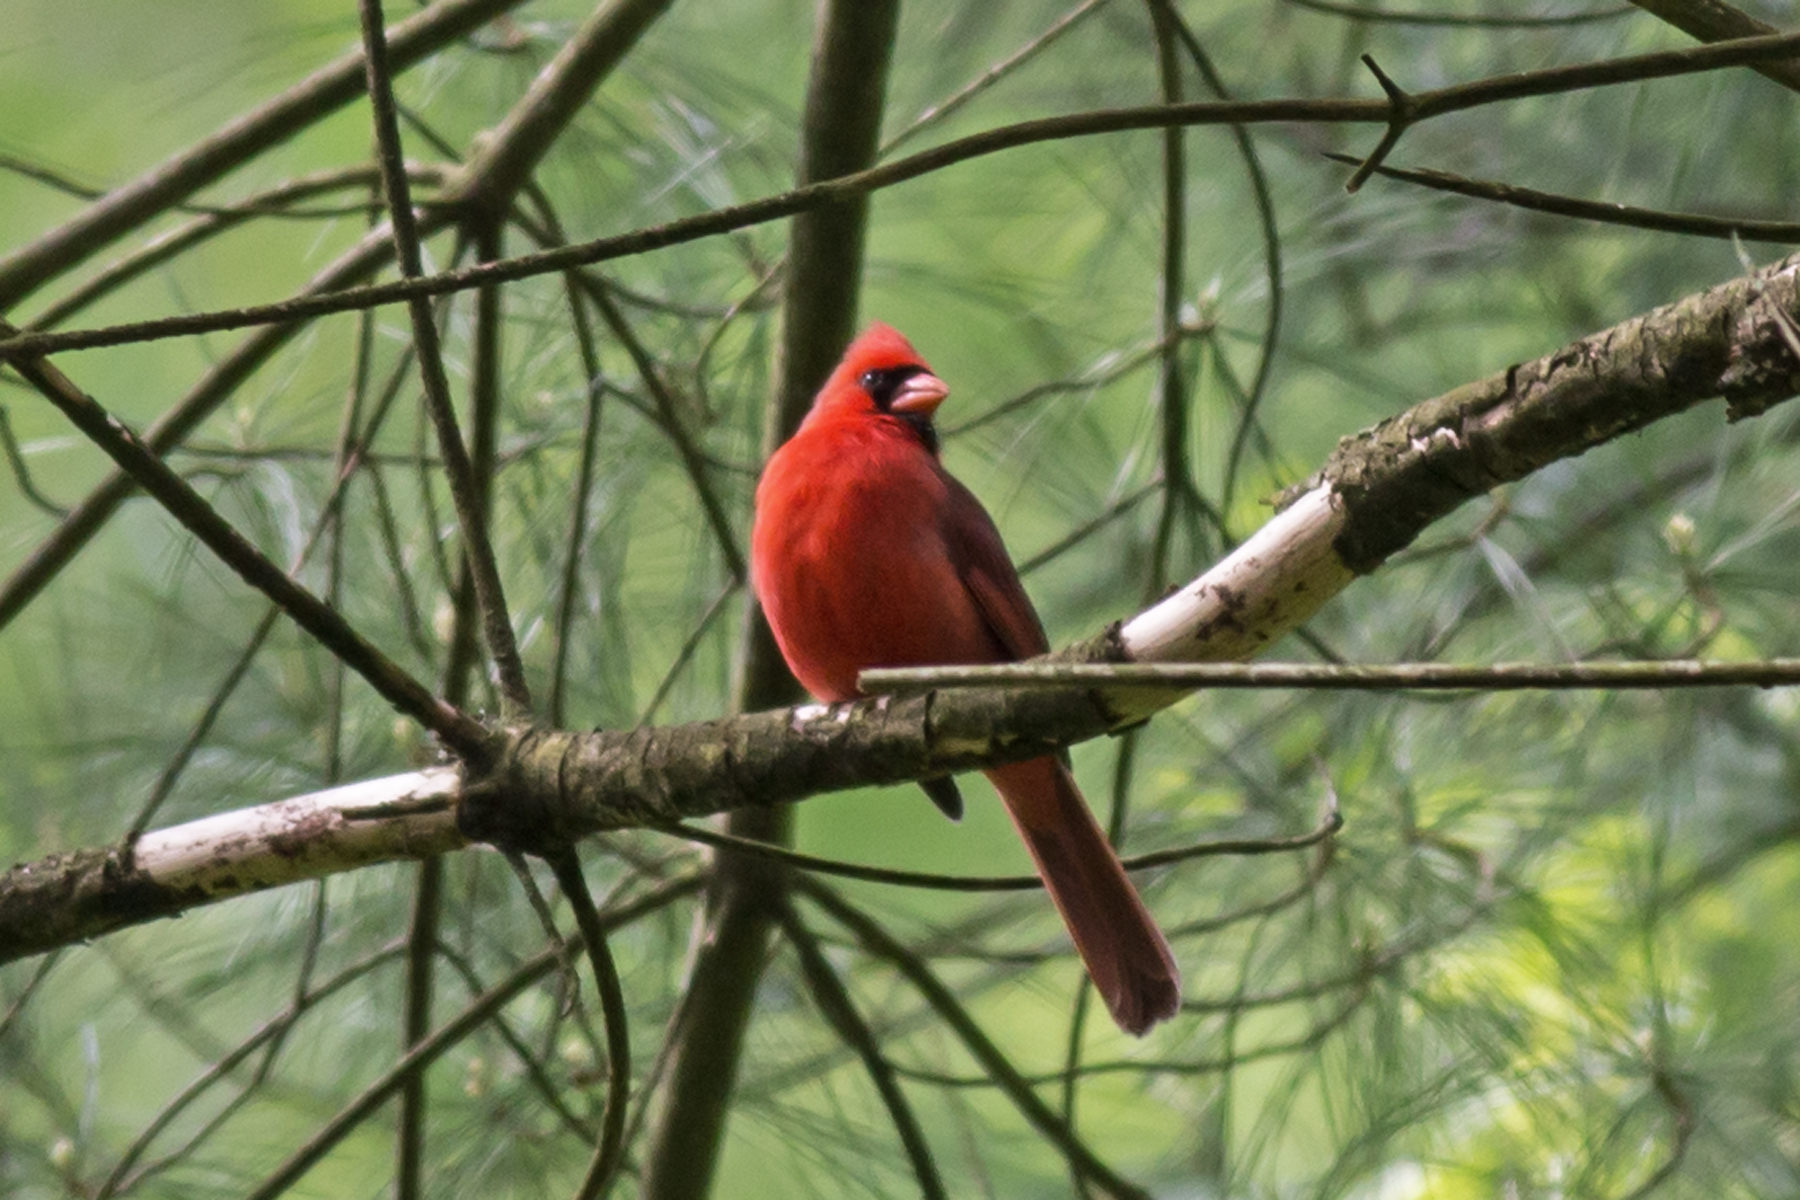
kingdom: Animalia
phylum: Chordata
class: Aves
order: Passeriformes
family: Cardinalidae
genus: Cardinalis
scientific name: Cardinalis cardinalis
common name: Northern cardinal
